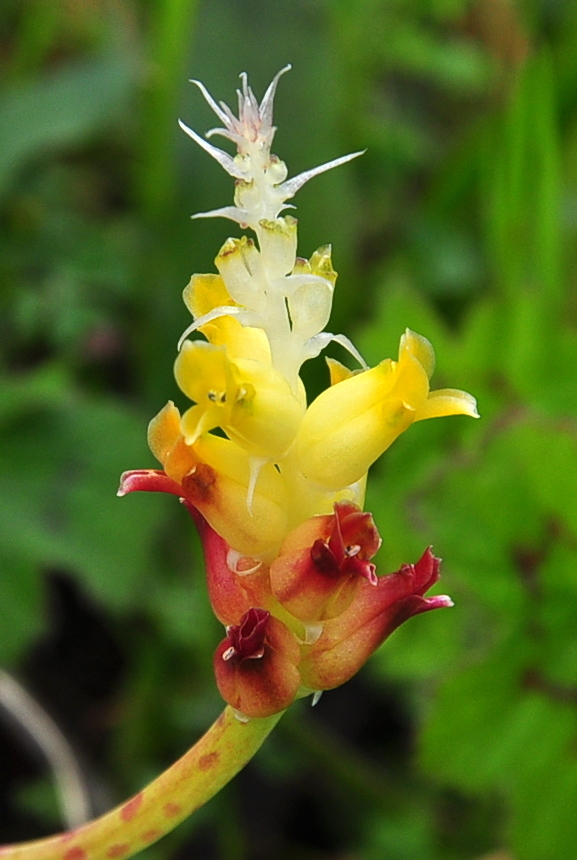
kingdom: Plantae
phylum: Tracheophyta
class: Liliopsida
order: Asparagales
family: Asparagaceae
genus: Lachenalia
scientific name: Lachenalia longibracteata
